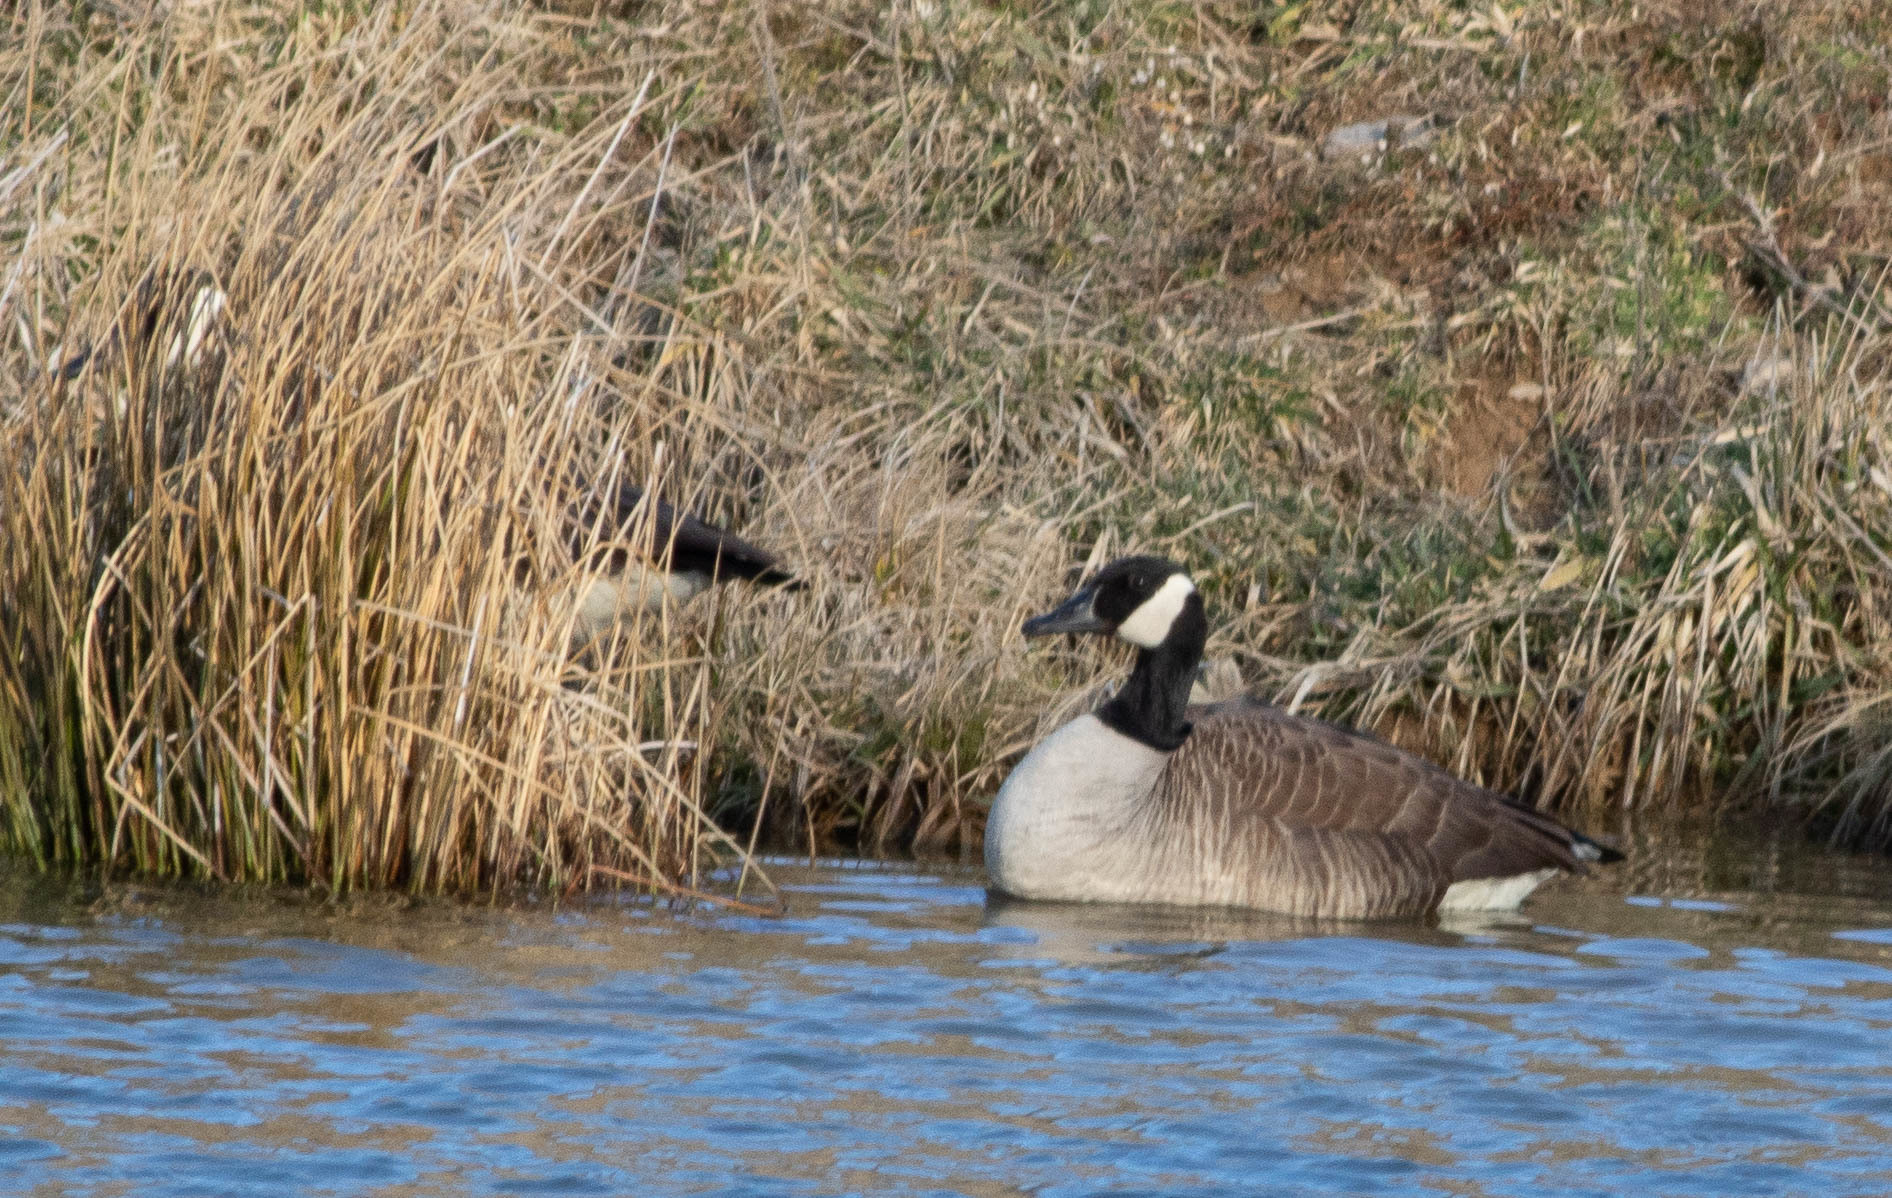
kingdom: Animalia
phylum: Chordata
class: Aves
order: Anseriformes
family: Anatidae
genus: Branta
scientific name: Branta canadensis
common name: Canada goose
